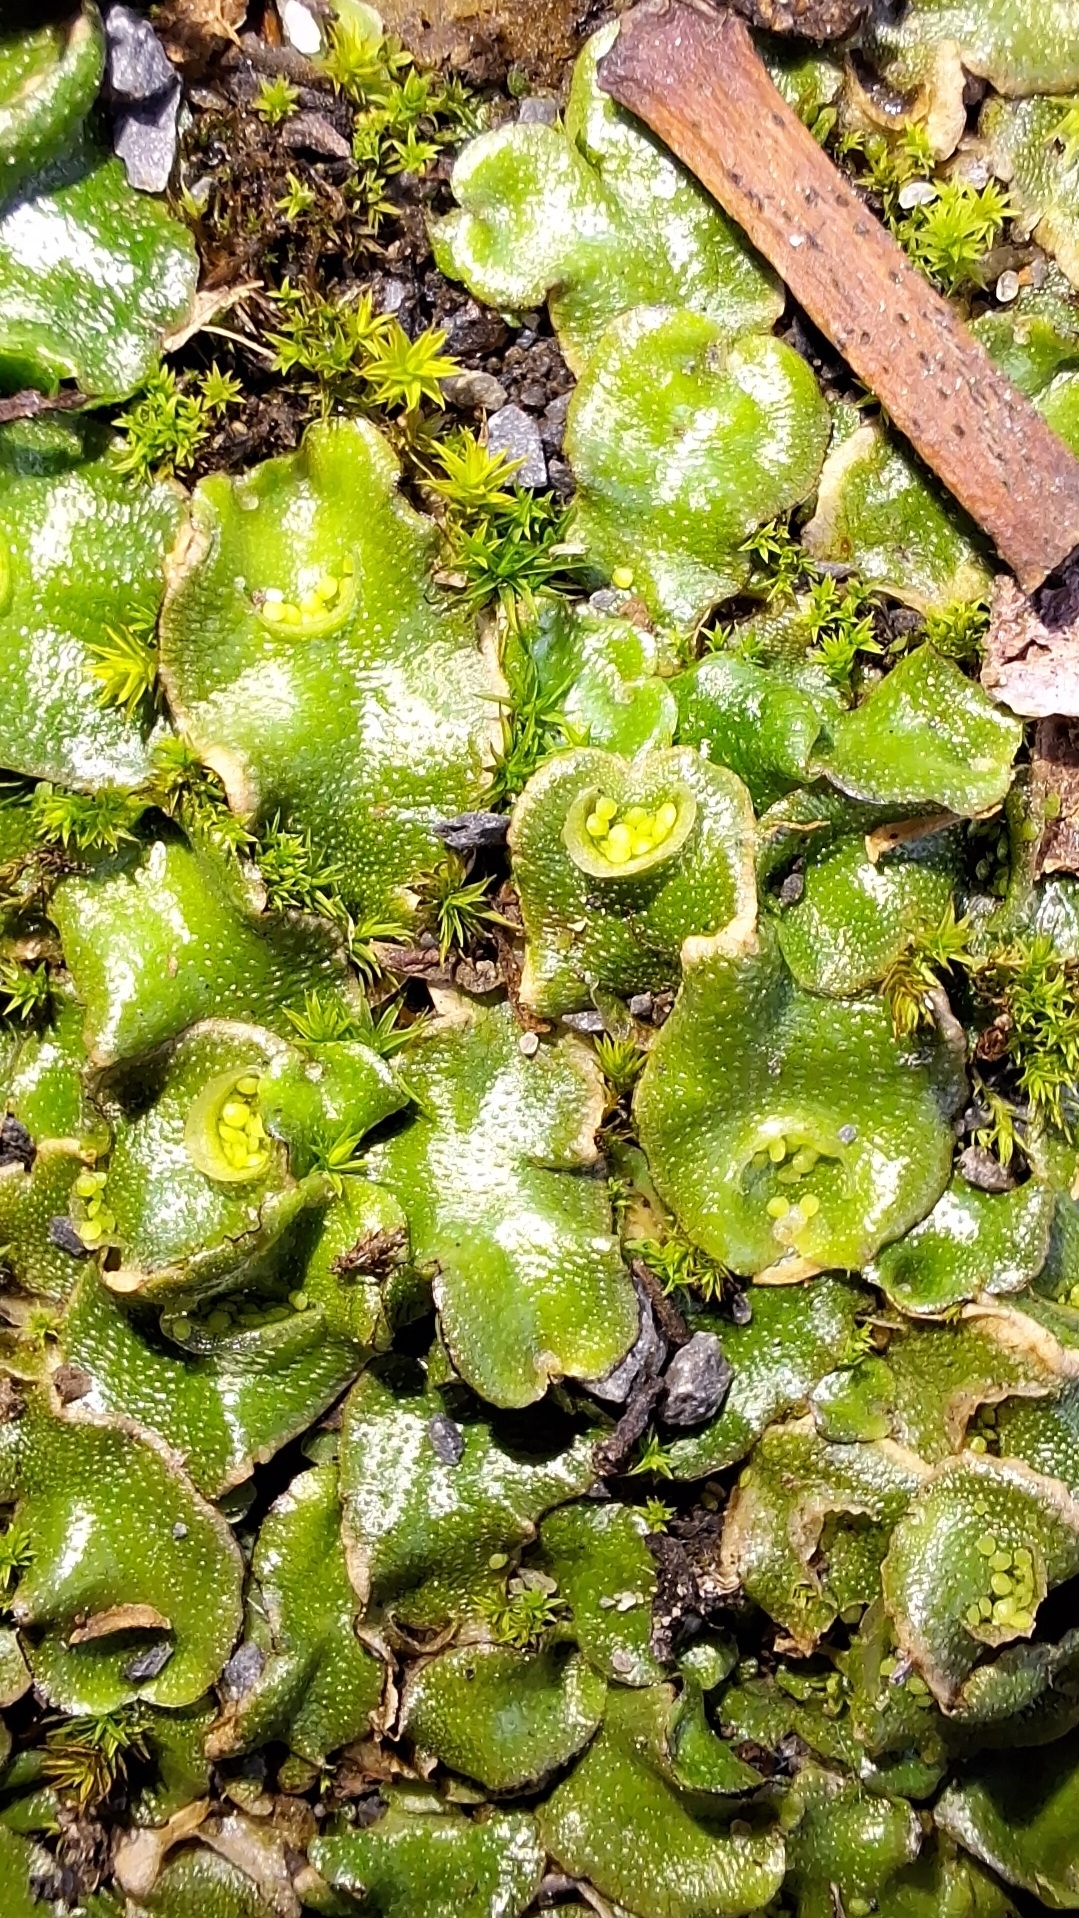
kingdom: Plantae
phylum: Marchantiophyta
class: Marchantiopsida
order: Lunulariales
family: Lunulariaceae
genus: Lunularia
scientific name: Lunularia cruciata
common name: Crescent-cup liverwort
